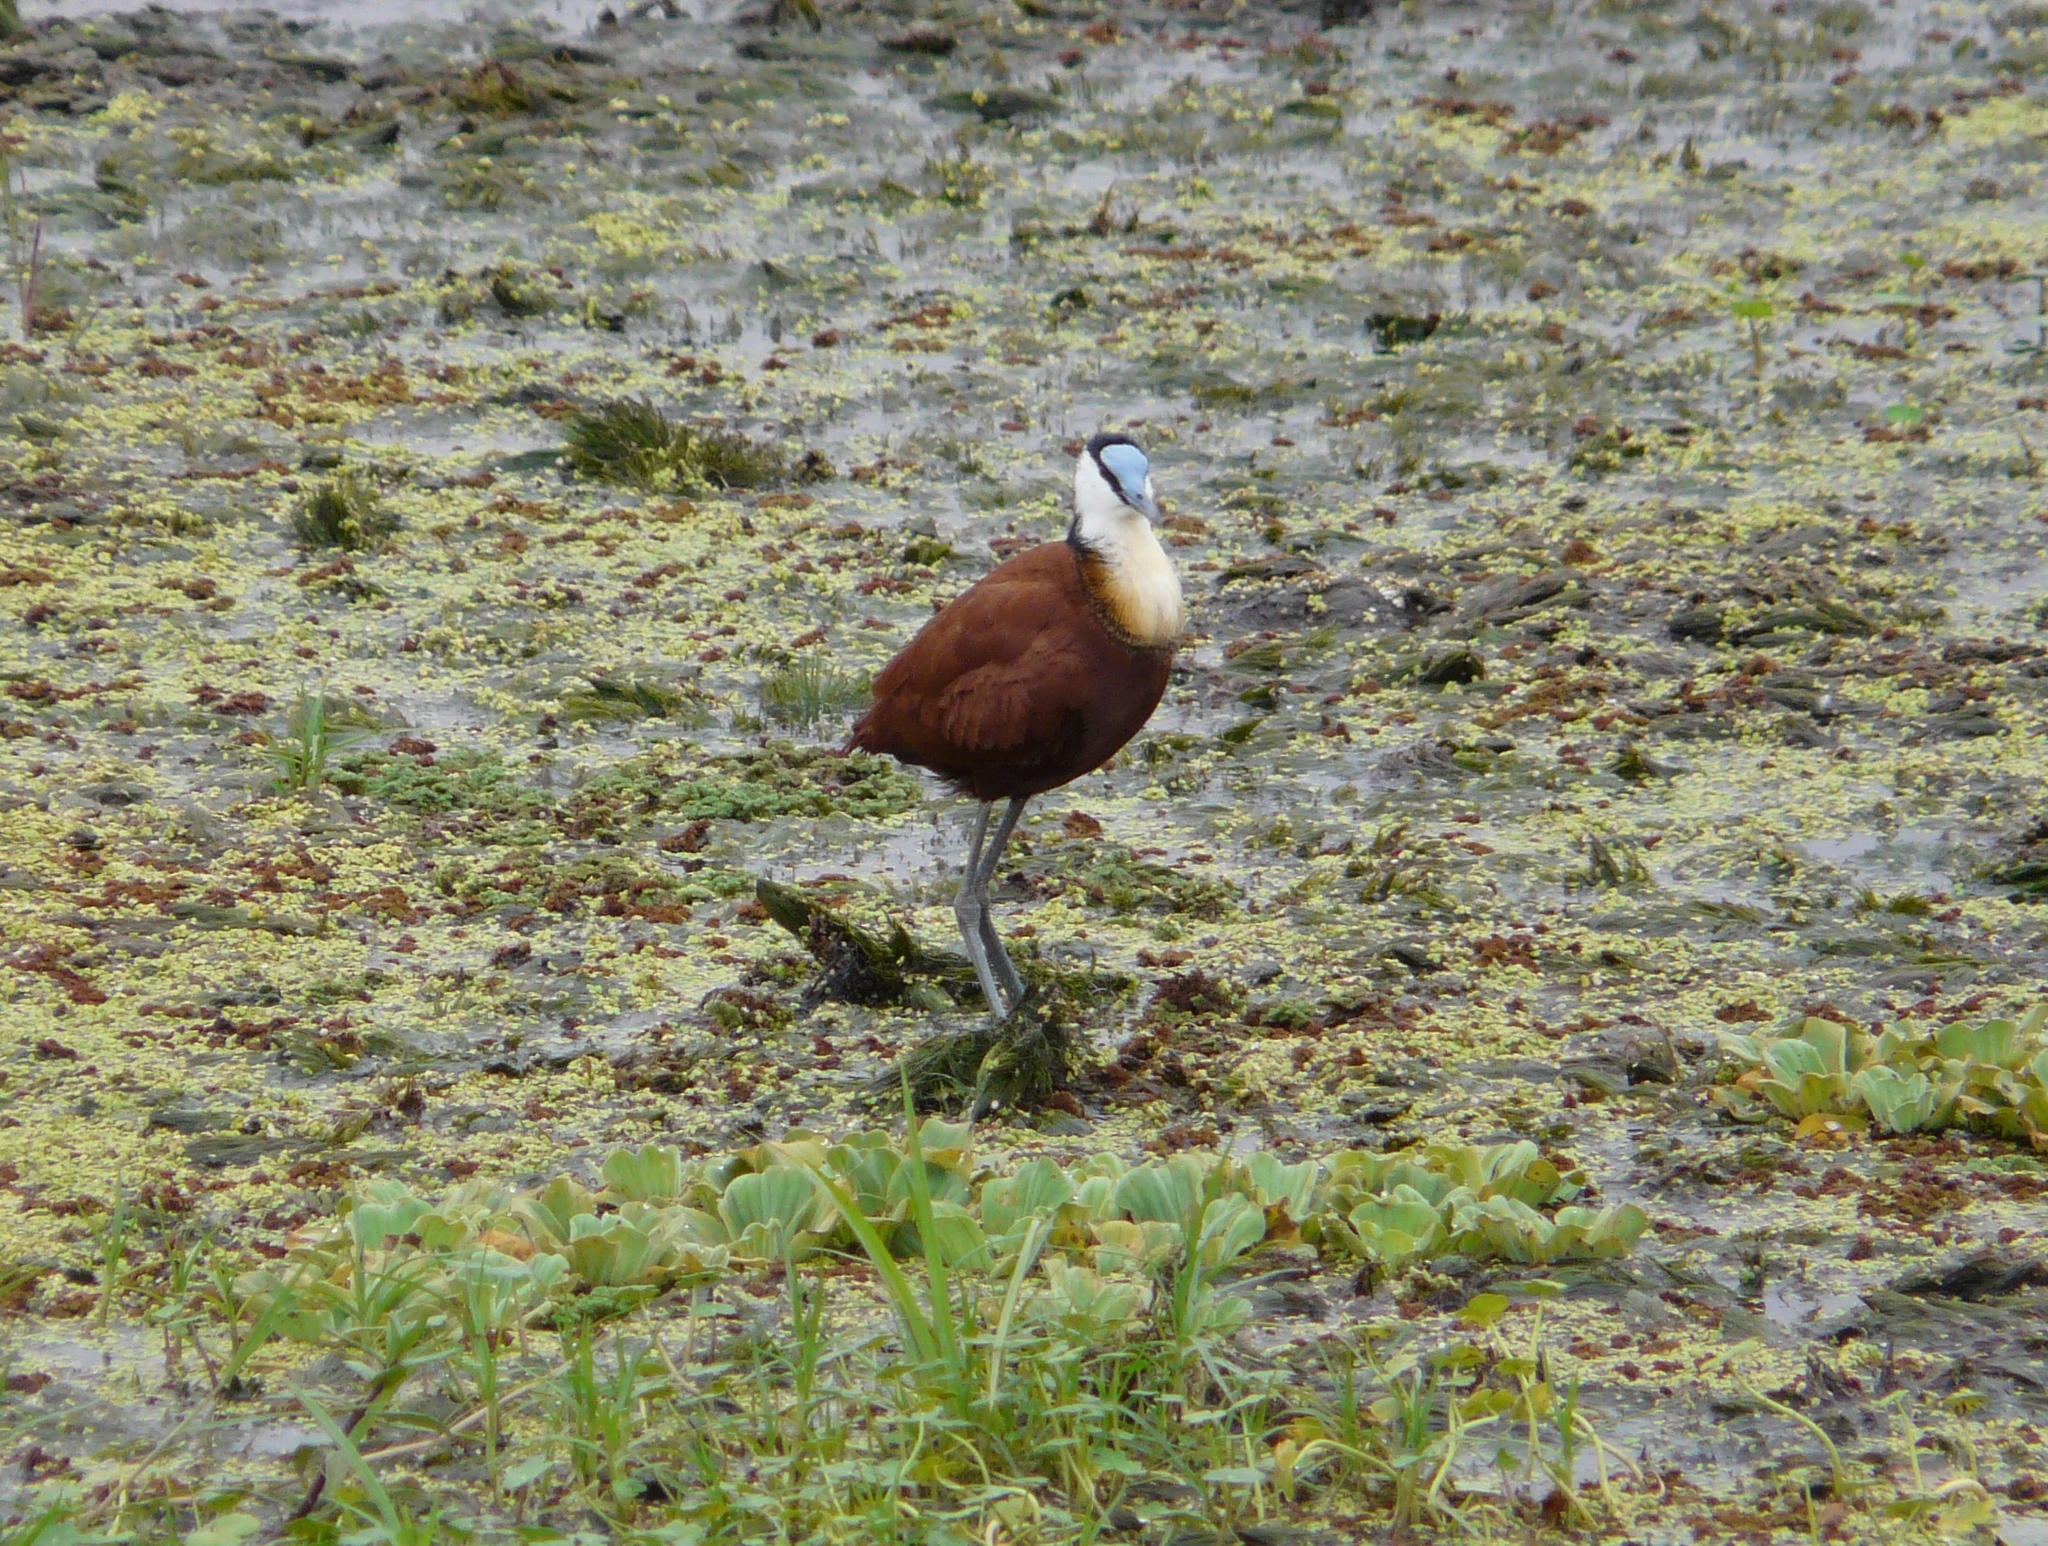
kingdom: Animalia
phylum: Chordata
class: Aves
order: Charadriiformes
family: Jacanidae
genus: Actophilornis
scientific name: Actophilornis africanus
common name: African jacana
